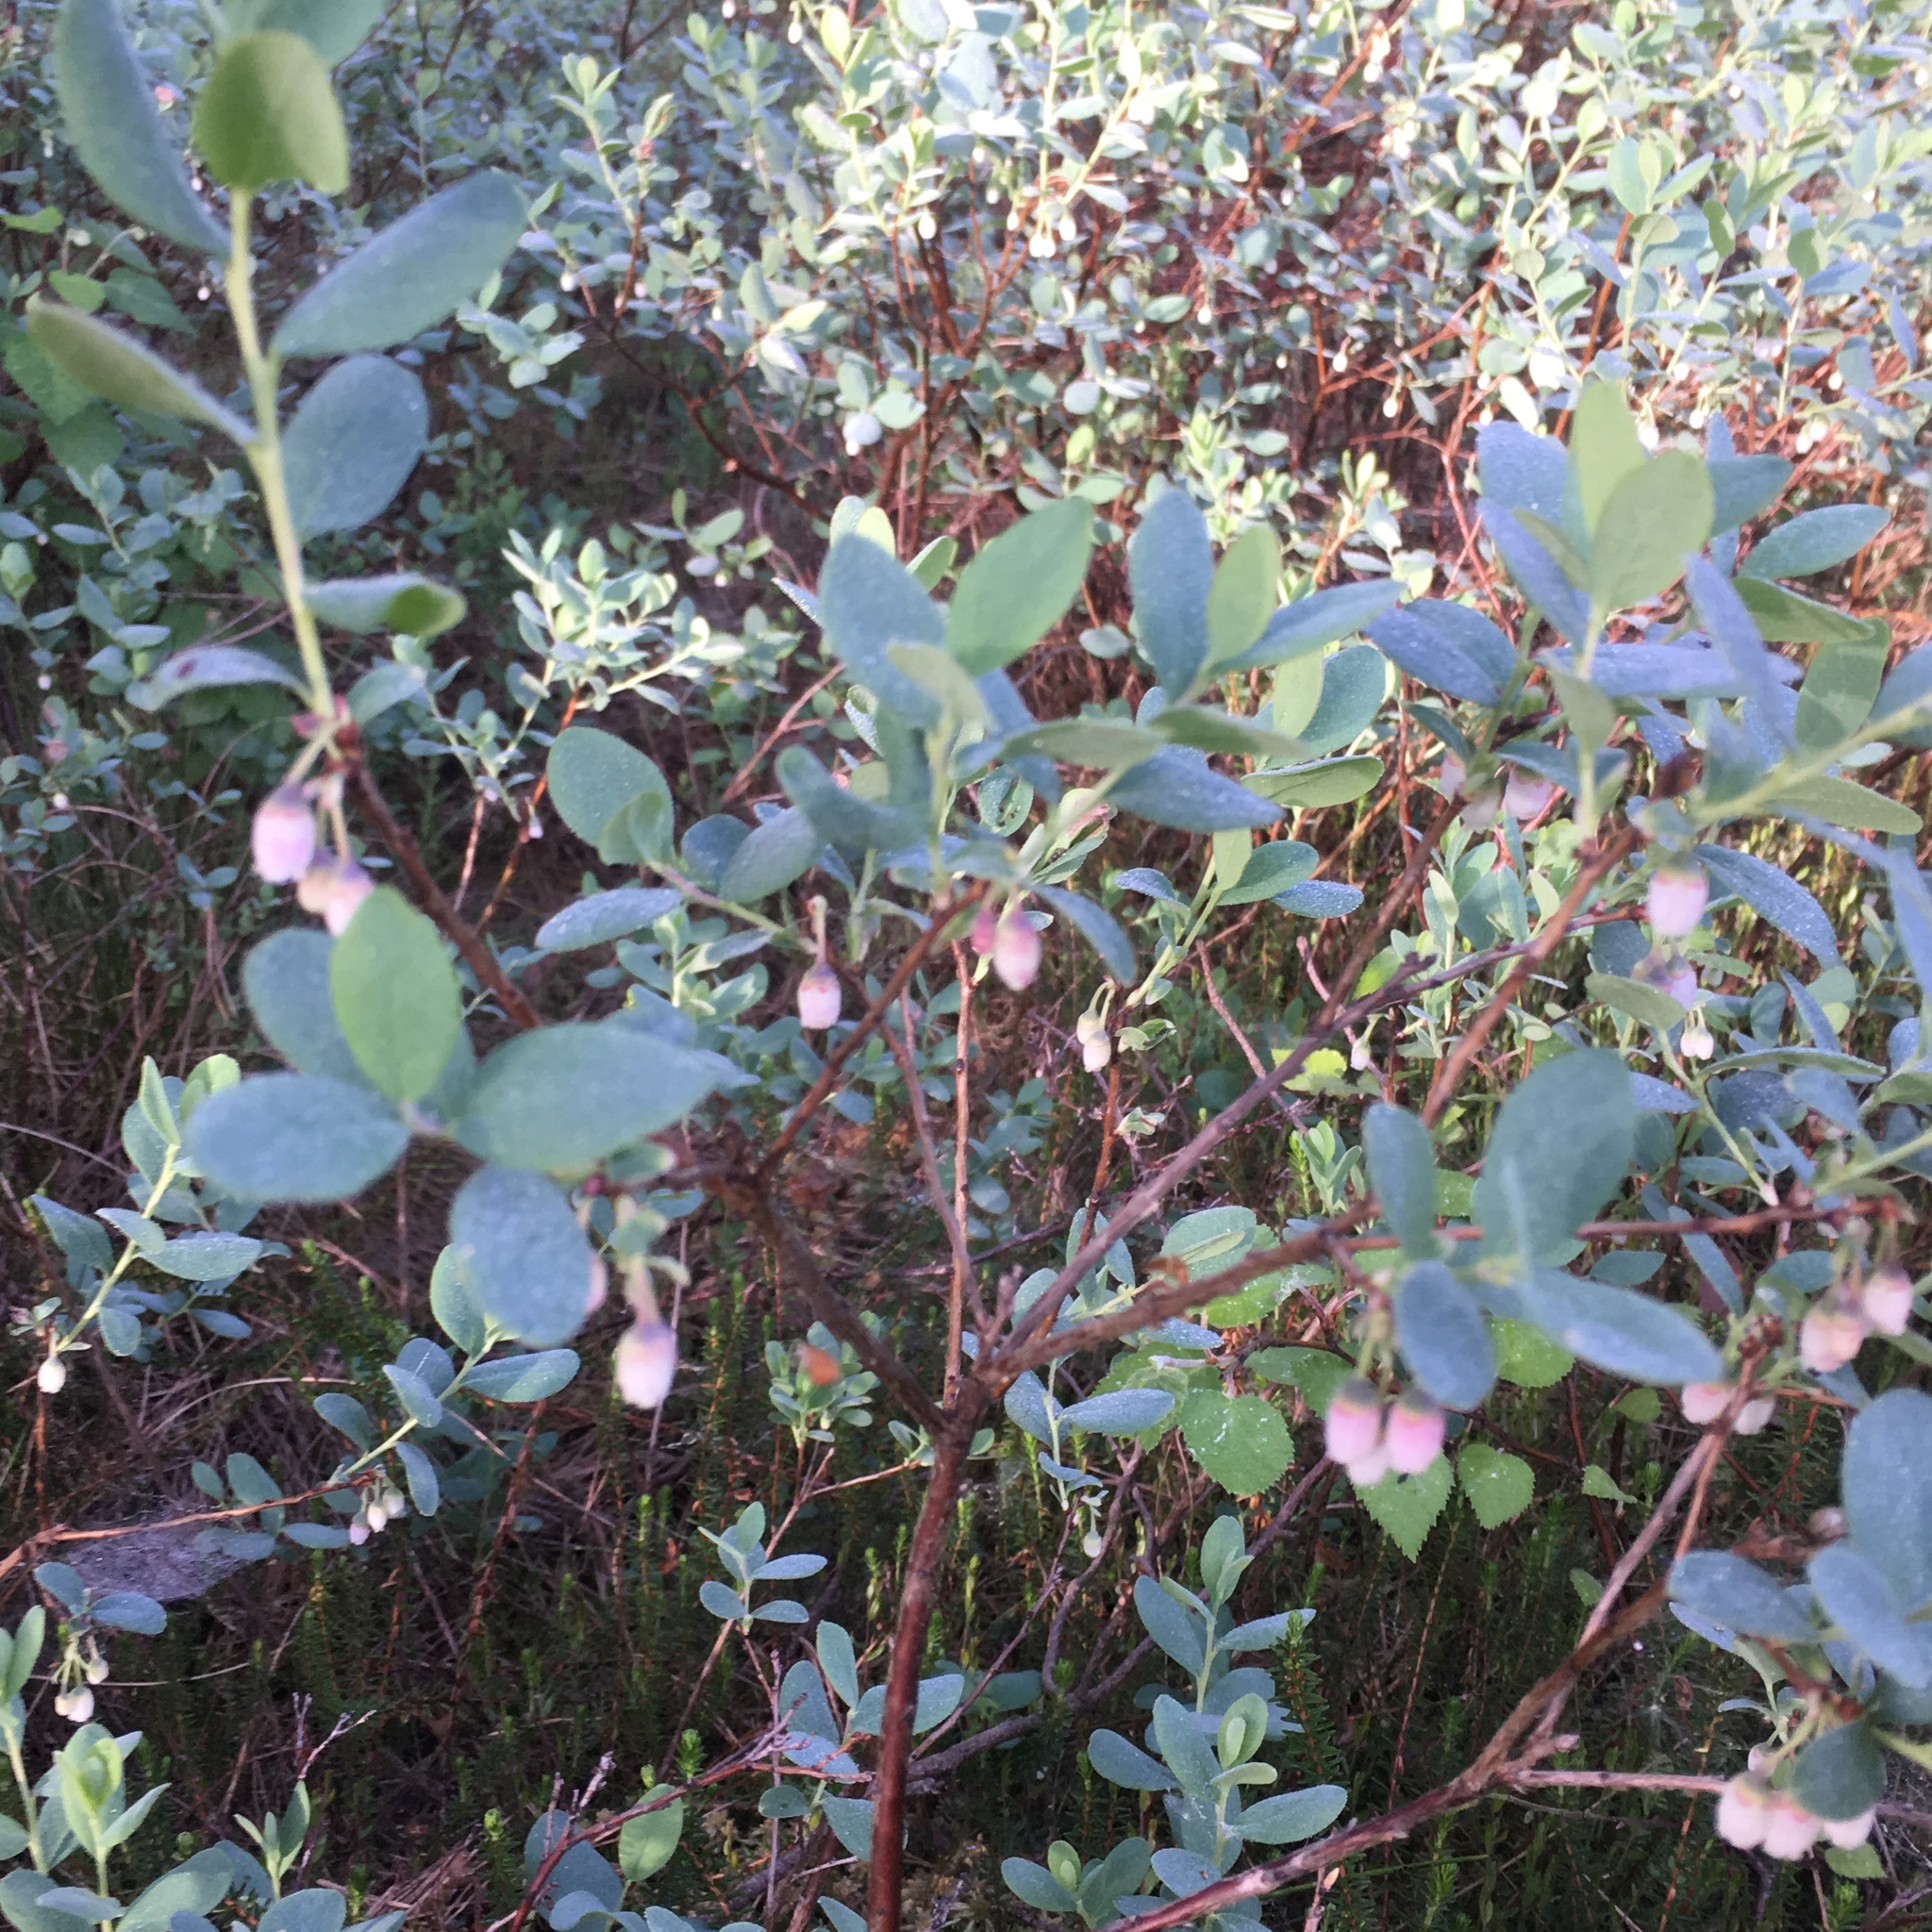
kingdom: Plantae
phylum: Tracheophyta
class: Magnoliopsida
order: Ericales
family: Ericaceae
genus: Vaccinium
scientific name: Vaccinium uliginosum
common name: Bog bilberry
